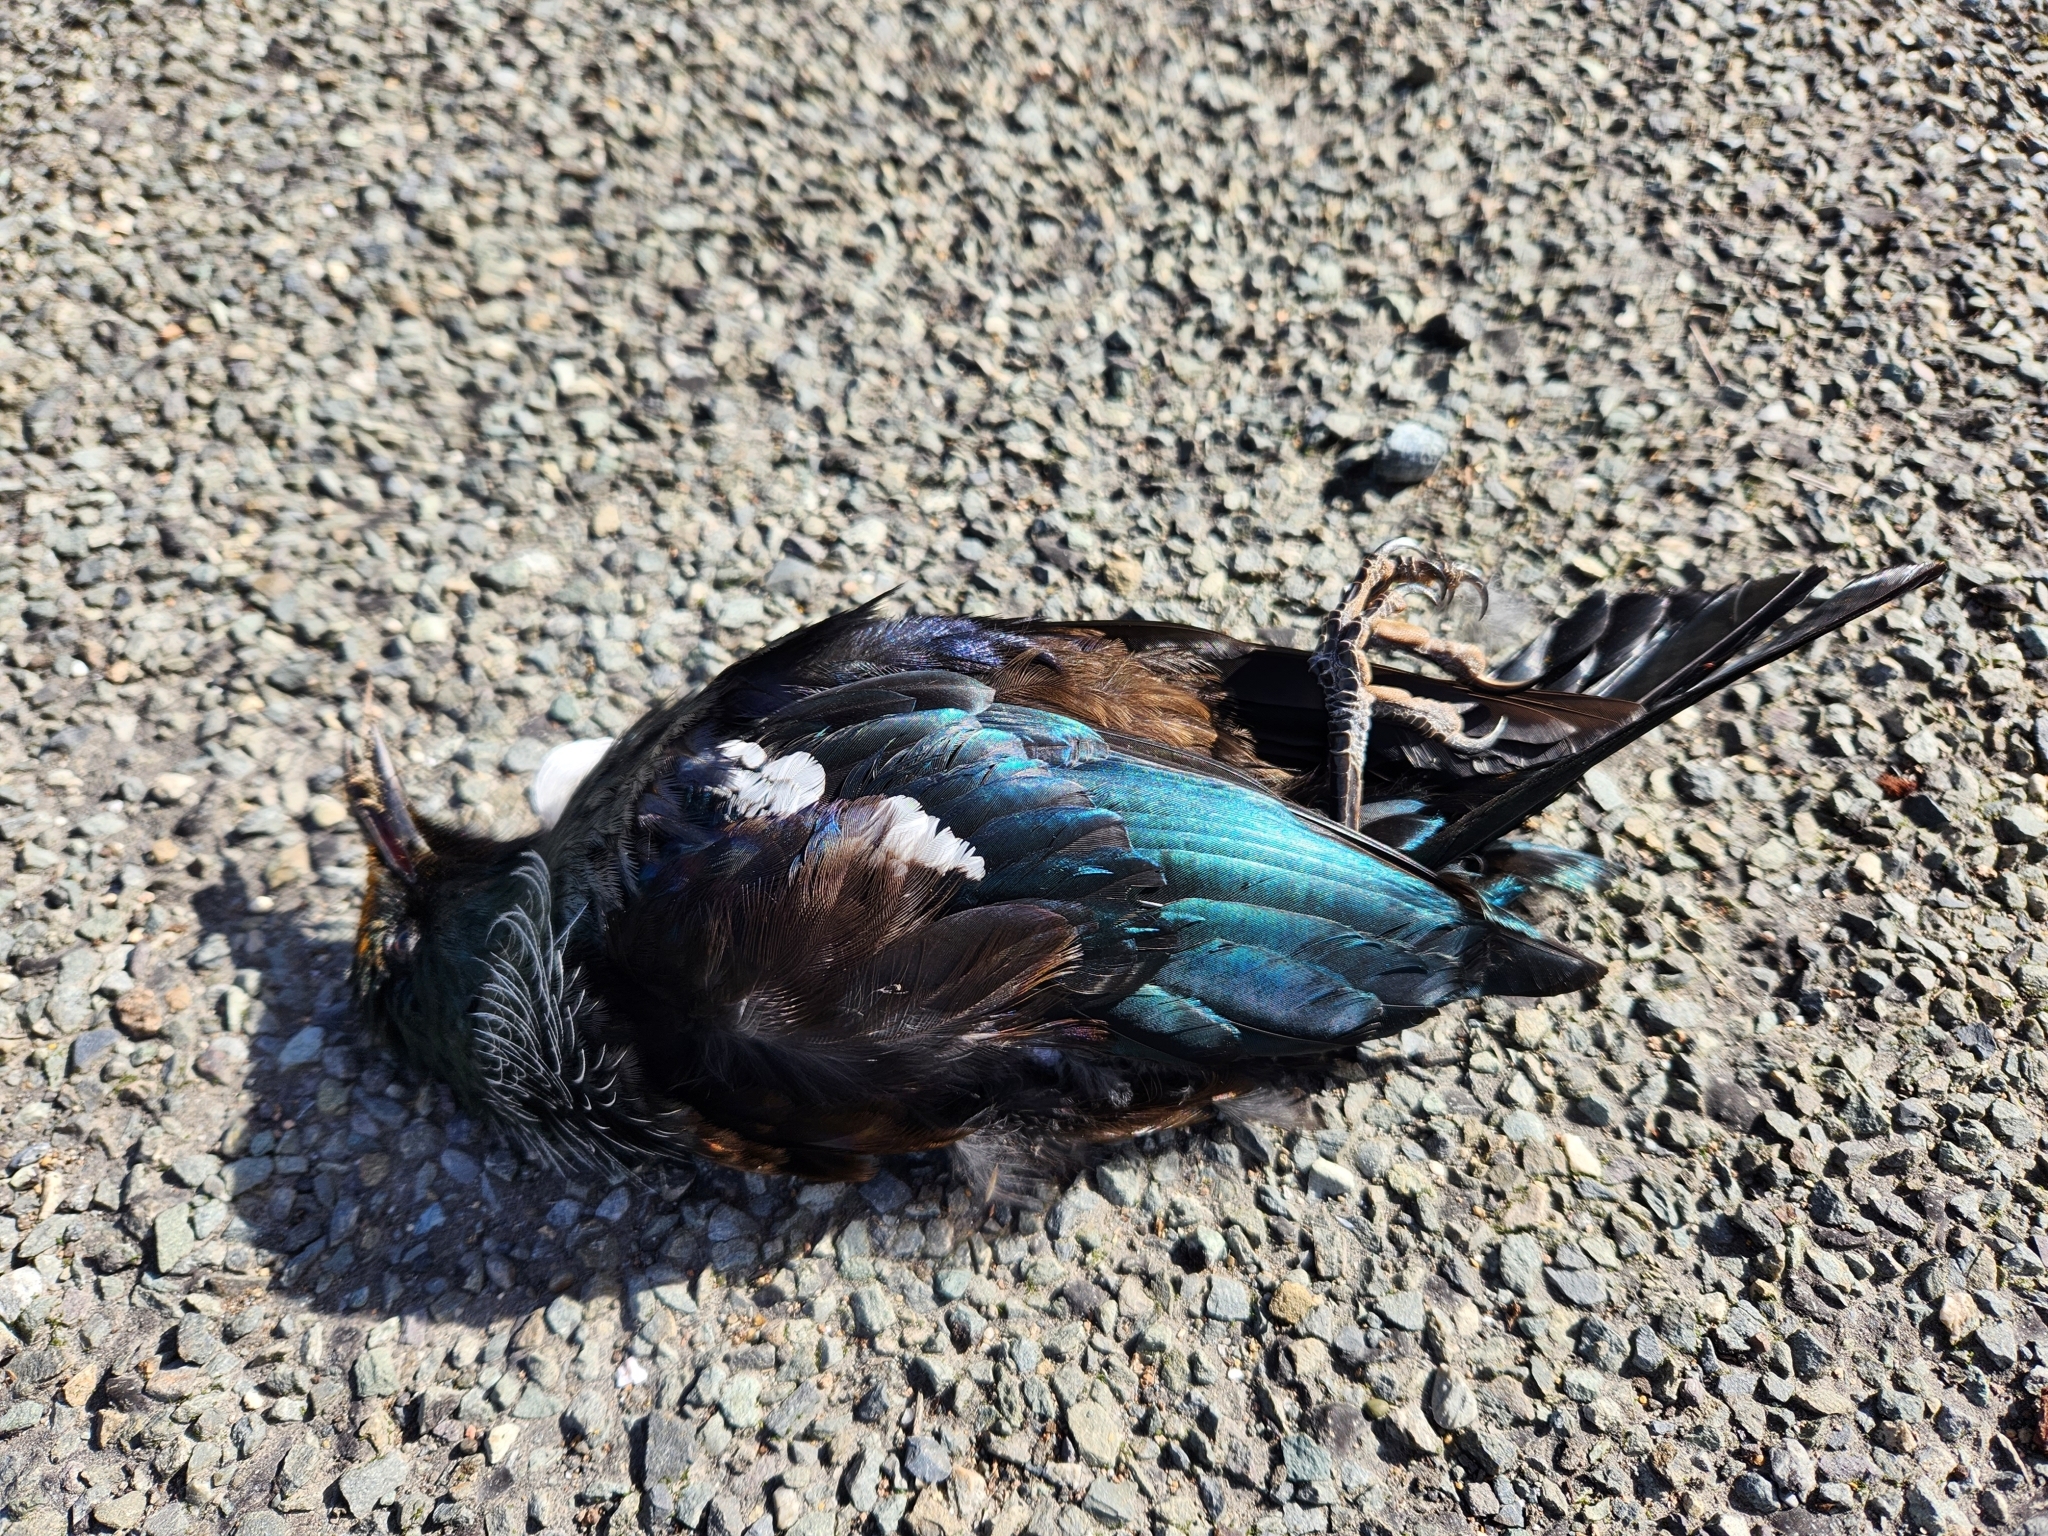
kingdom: Animalia
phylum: Chordata
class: Aves
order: Passeriformes
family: Meliphagidae
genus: Prosthemadera
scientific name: Prosthemadera novaeseelandiae
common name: Tui
